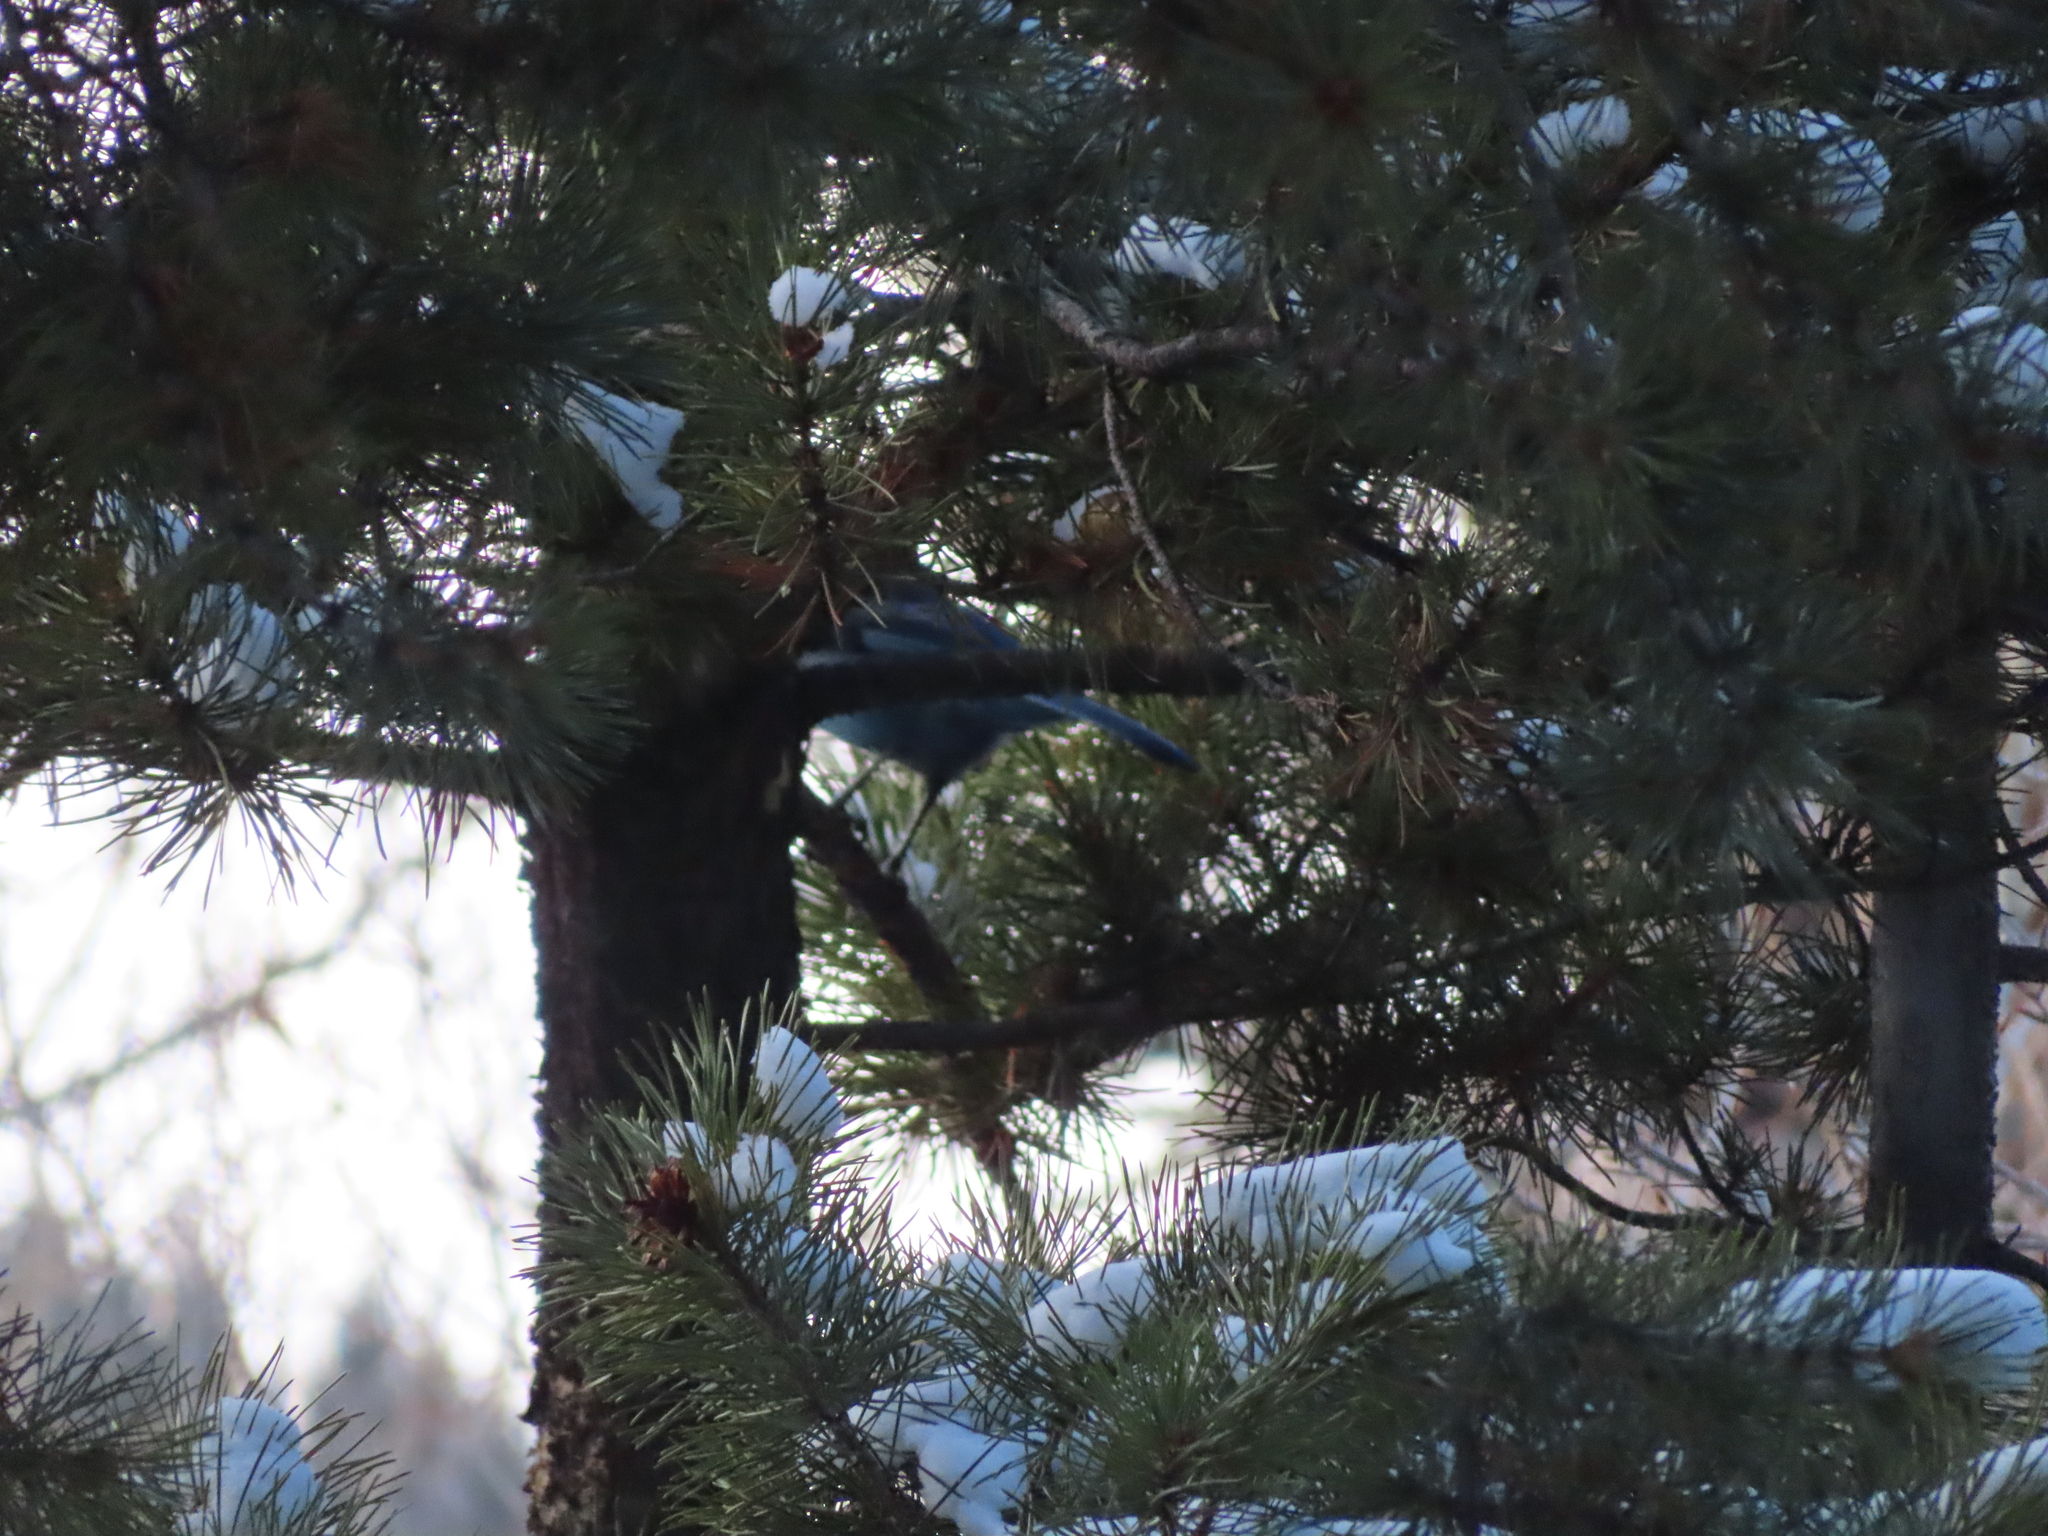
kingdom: Animalia
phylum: Chordata
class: Aves
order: Passeriformes
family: Corvidae
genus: Cyanocitta
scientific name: Cyanocitta stelleri
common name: Steller's jay
